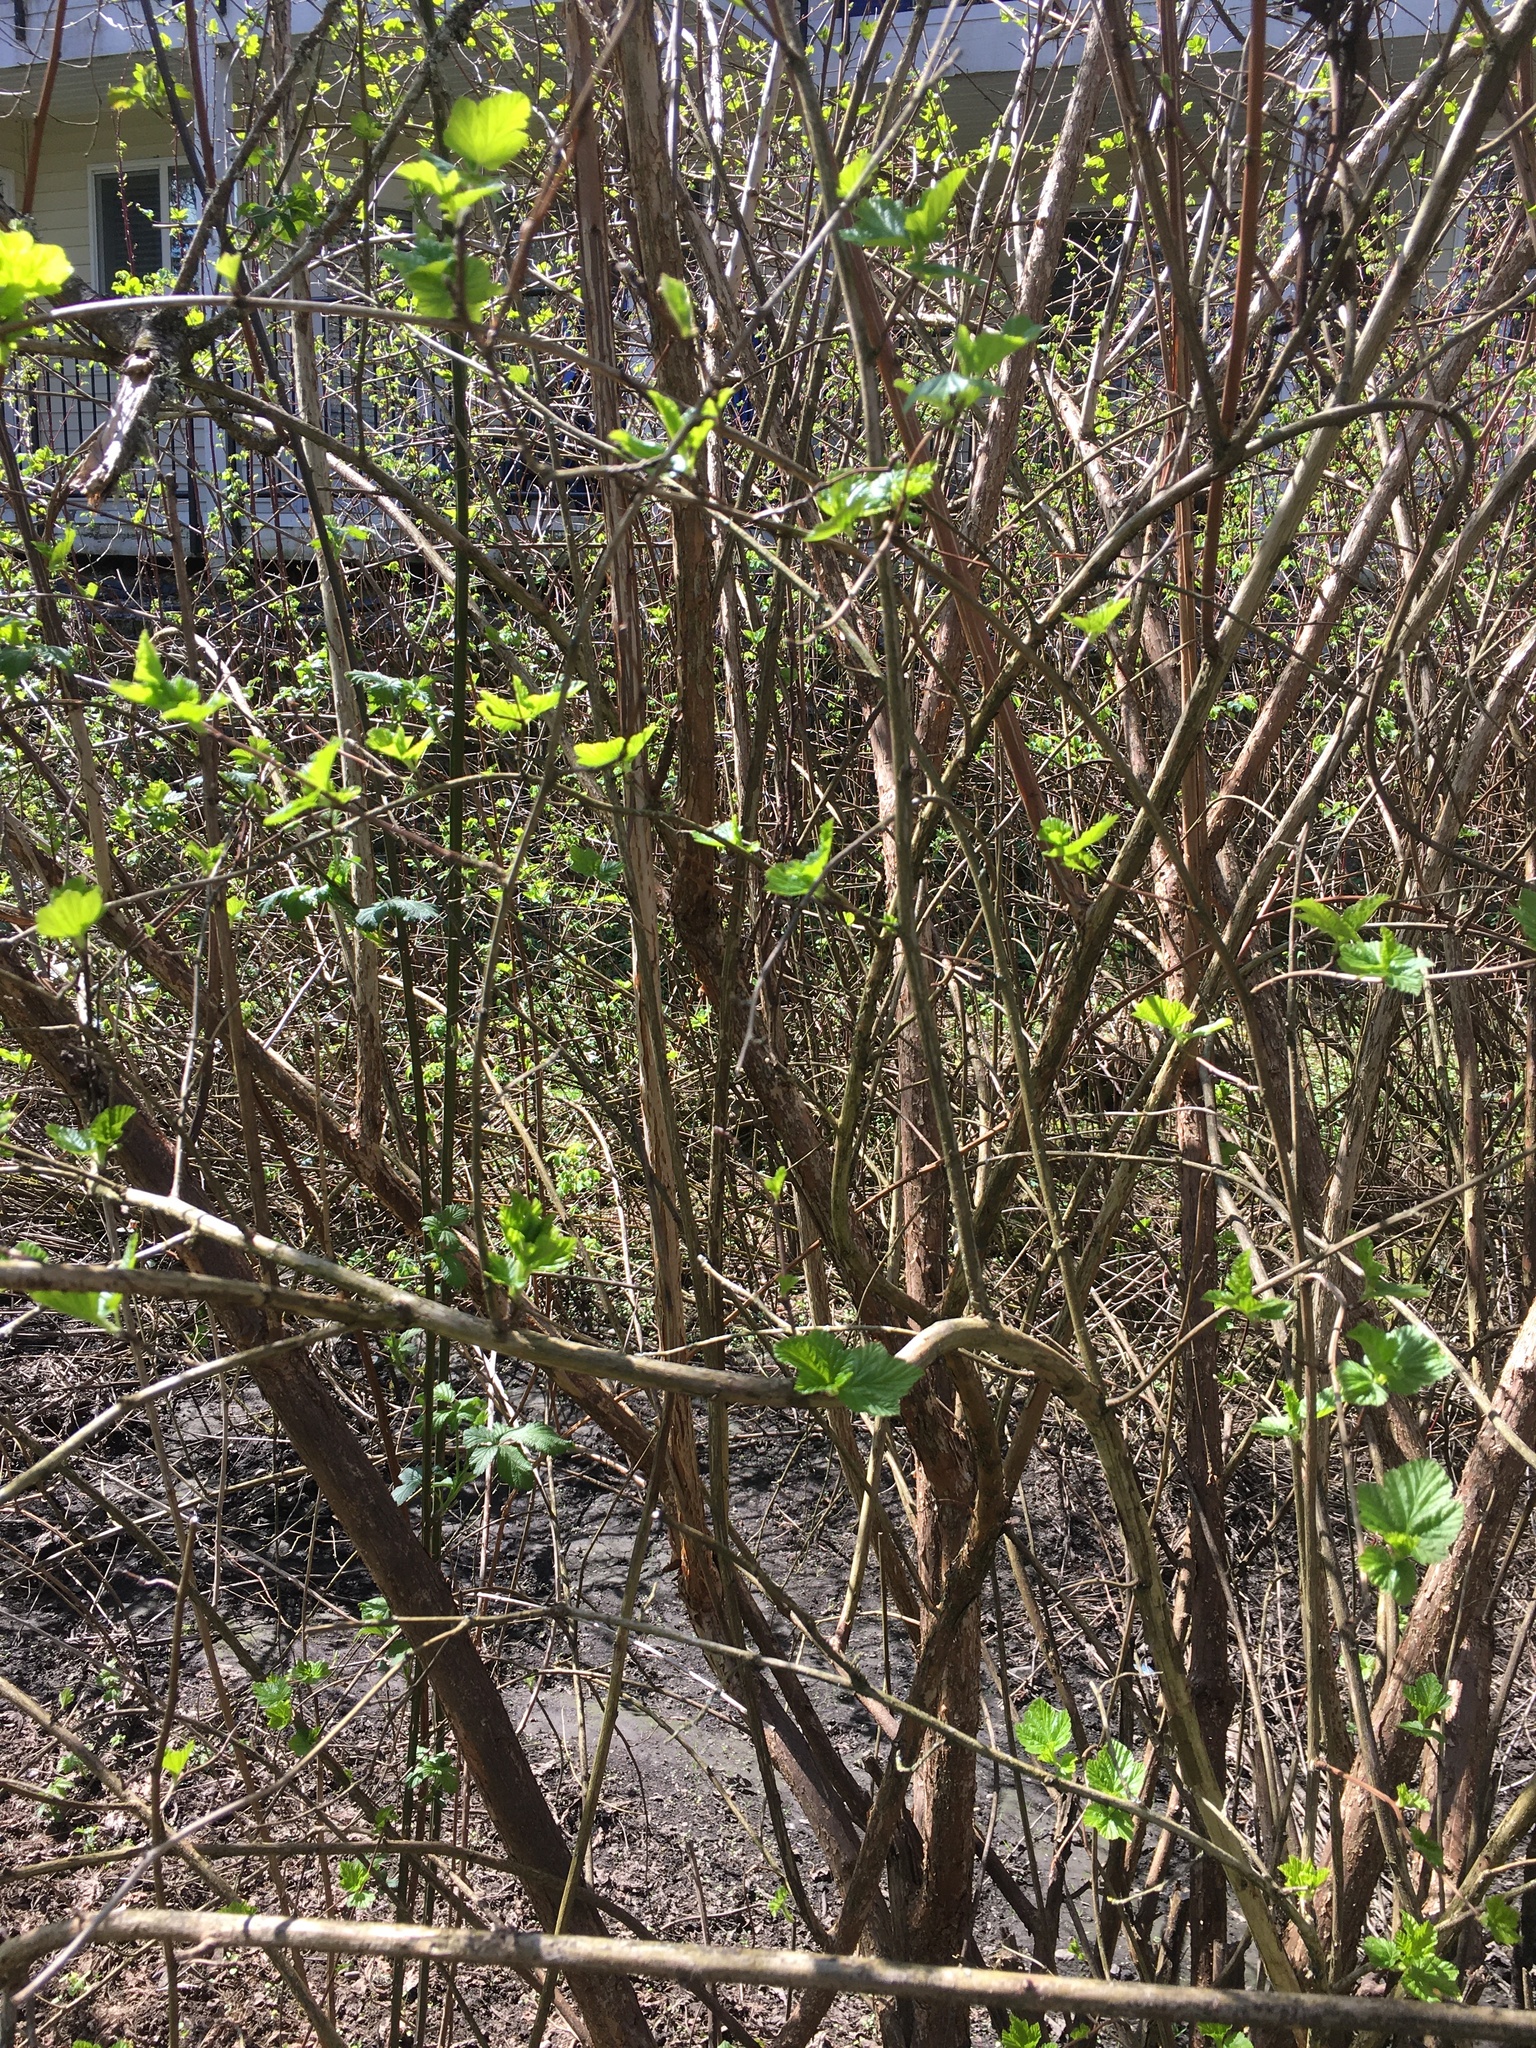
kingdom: Plantae
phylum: Tracheophyta
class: Magnoliopsida
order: Rosales
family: Rosaceae
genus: Rubus
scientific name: Rubus bifrons
